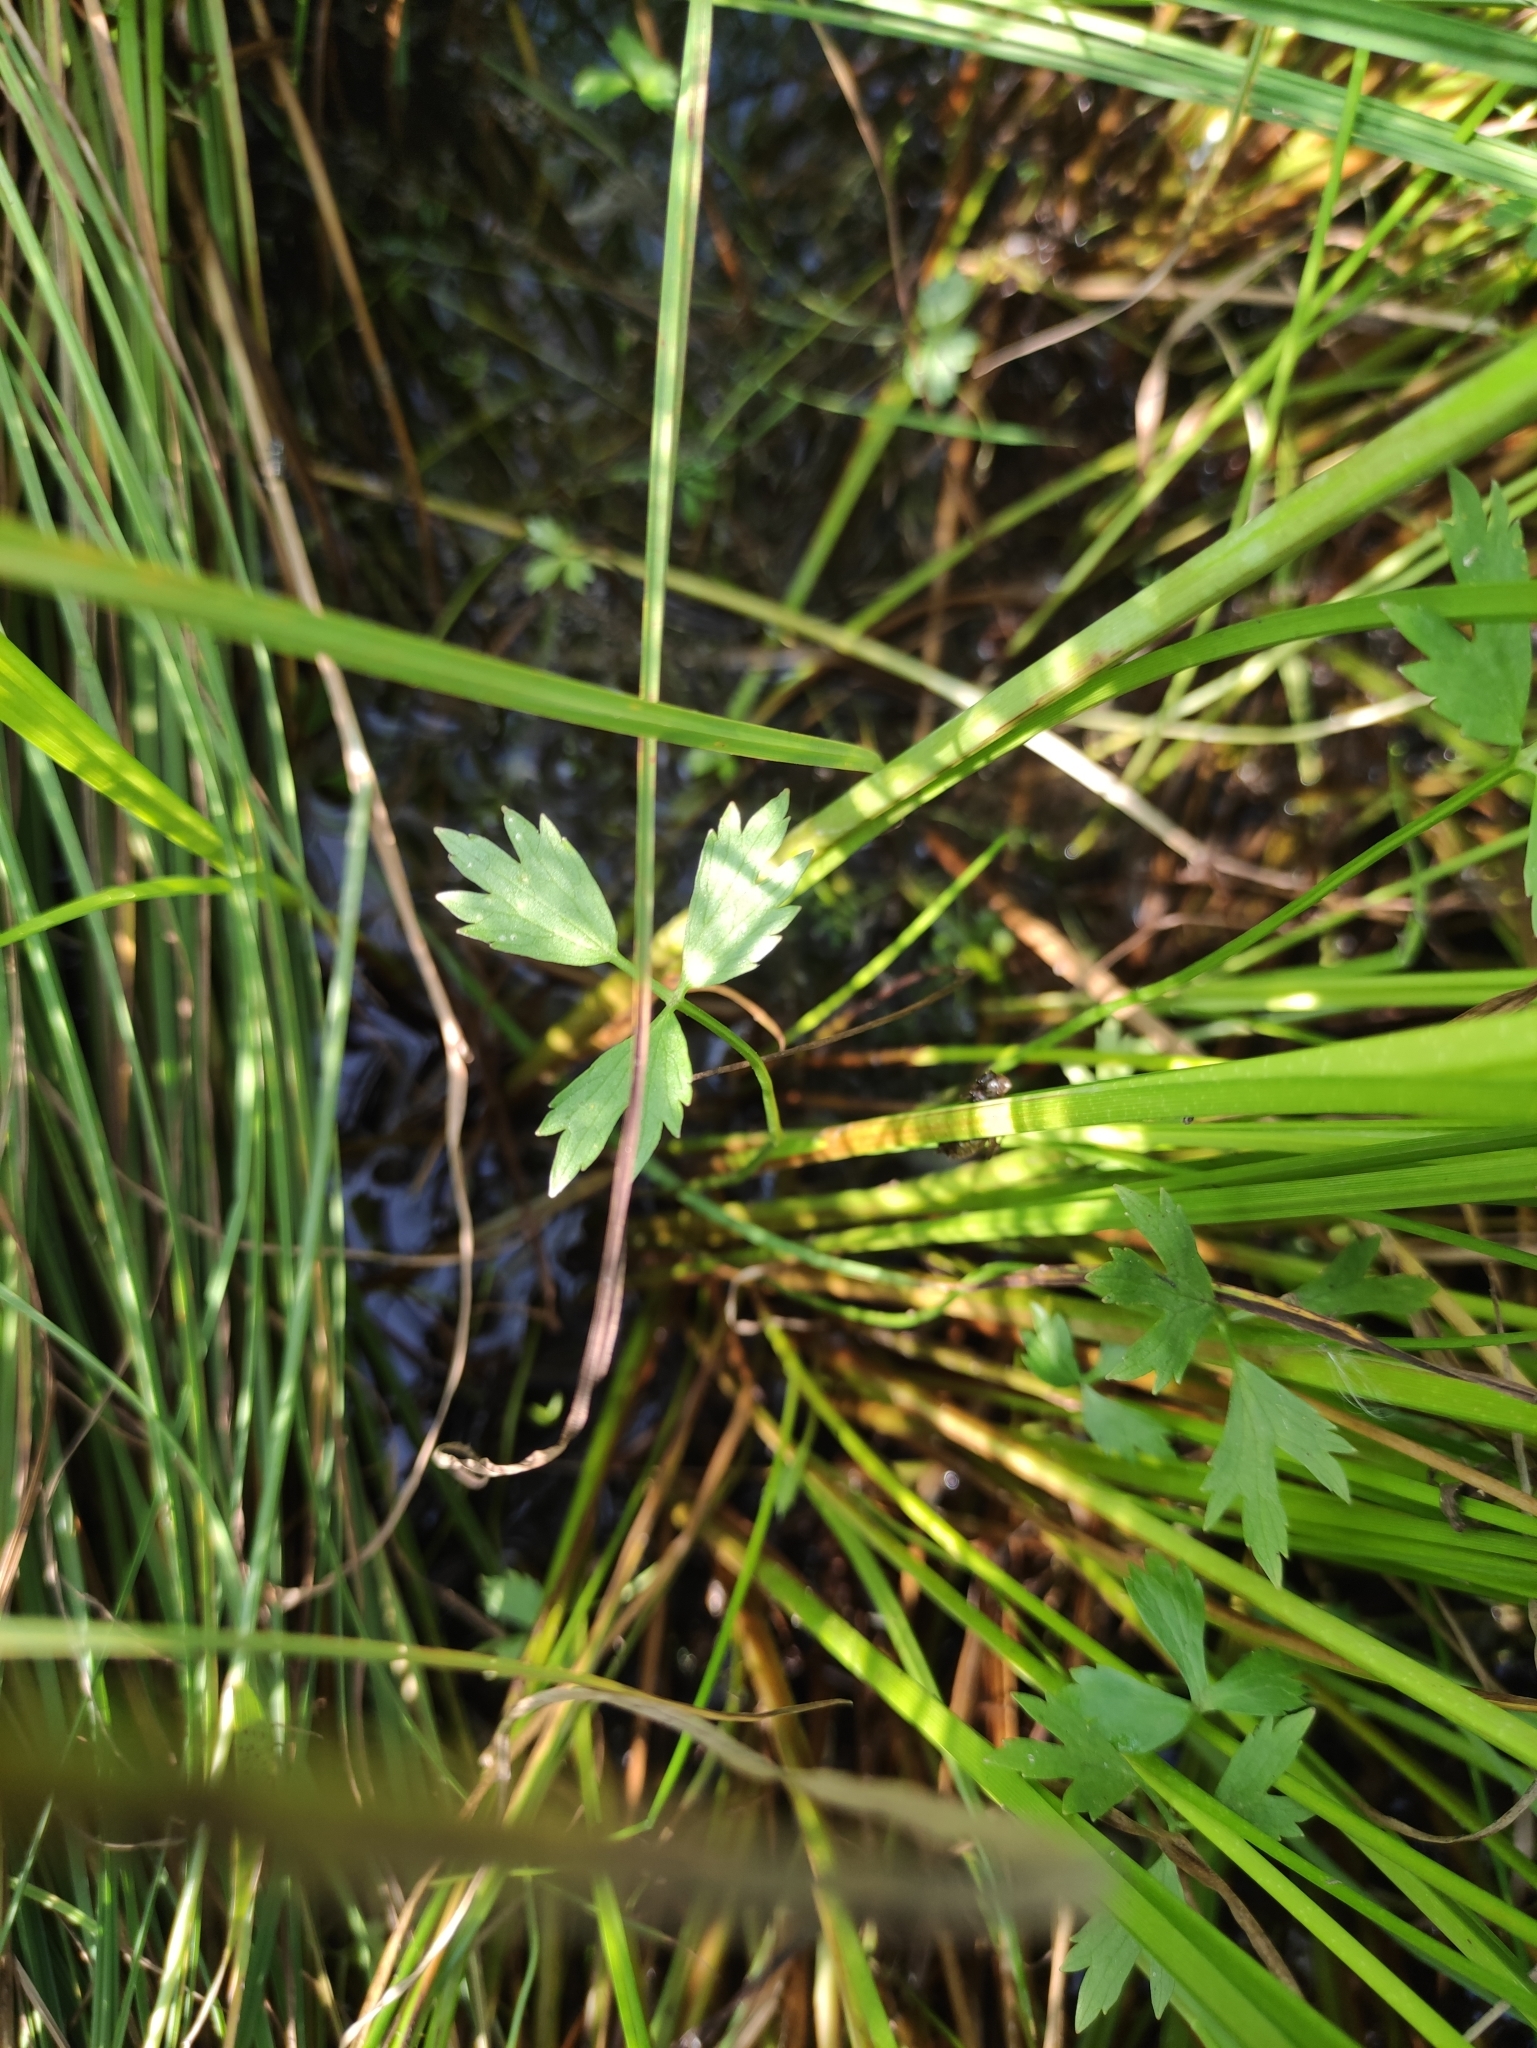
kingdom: Plantae
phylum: Tracheophyta
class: Magnoliopsida
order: Ranunculales
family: Ranunculaceae
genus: Ranunculus
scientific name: Ranunculus repens
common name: Creeping buttercup
